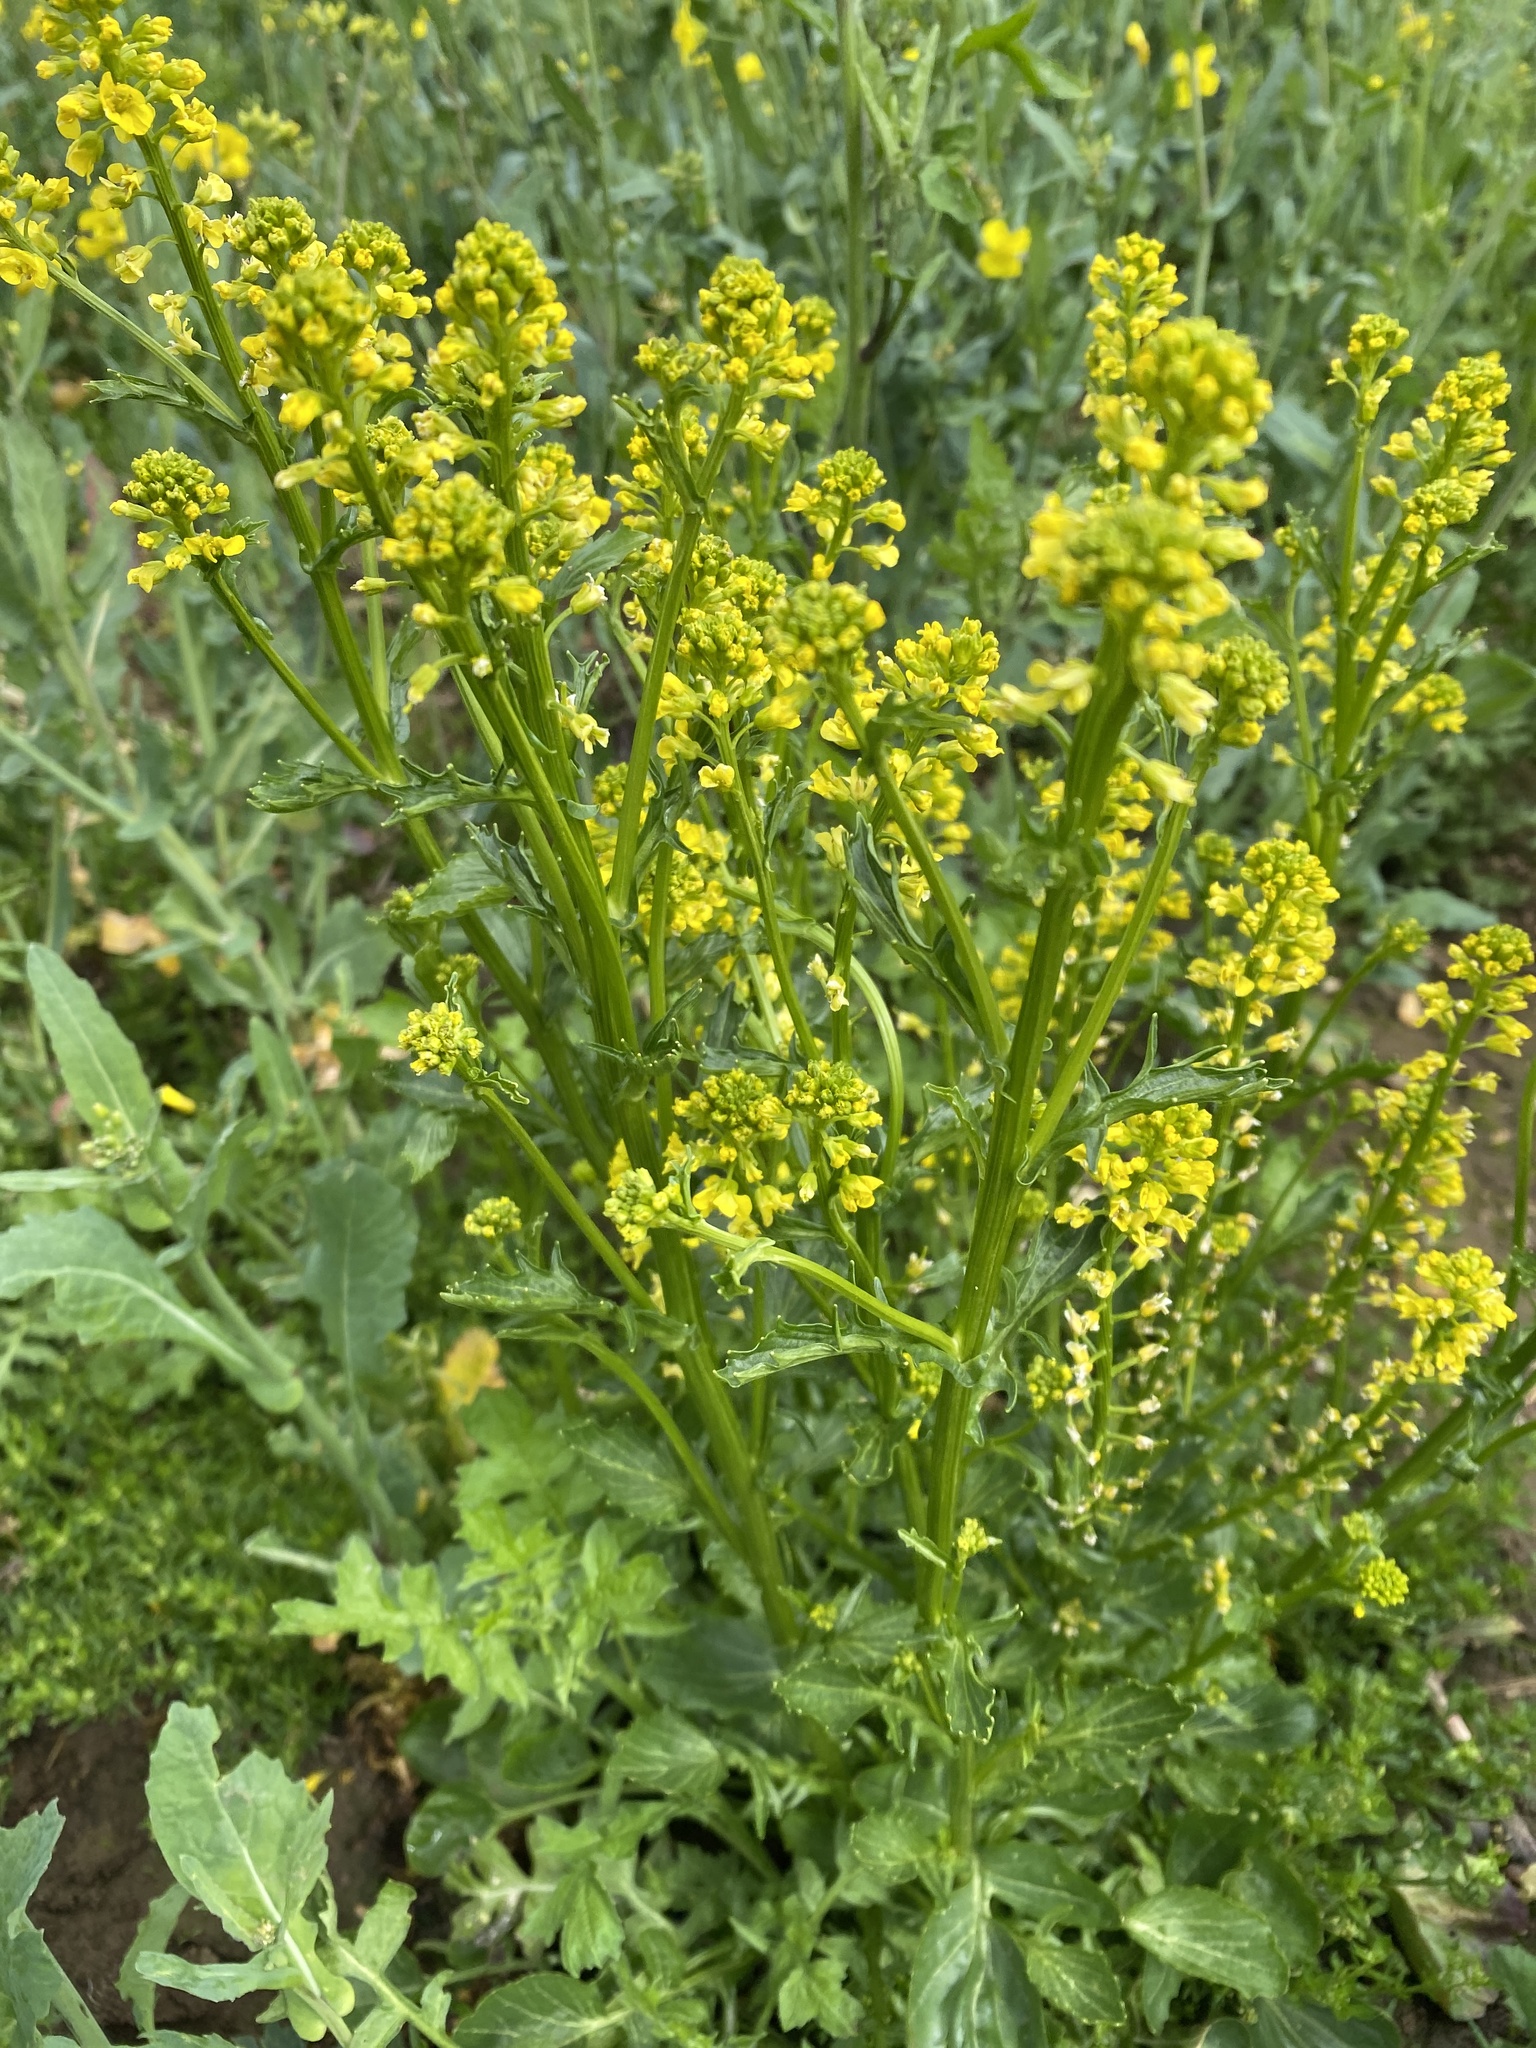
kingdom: Plantae
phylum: Tracheophyta
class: Magnoliopsida
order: Brassicales
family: Brassicaceae
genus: Barbarea
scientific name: Barbarea vulgaris
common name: Cressy-greens
